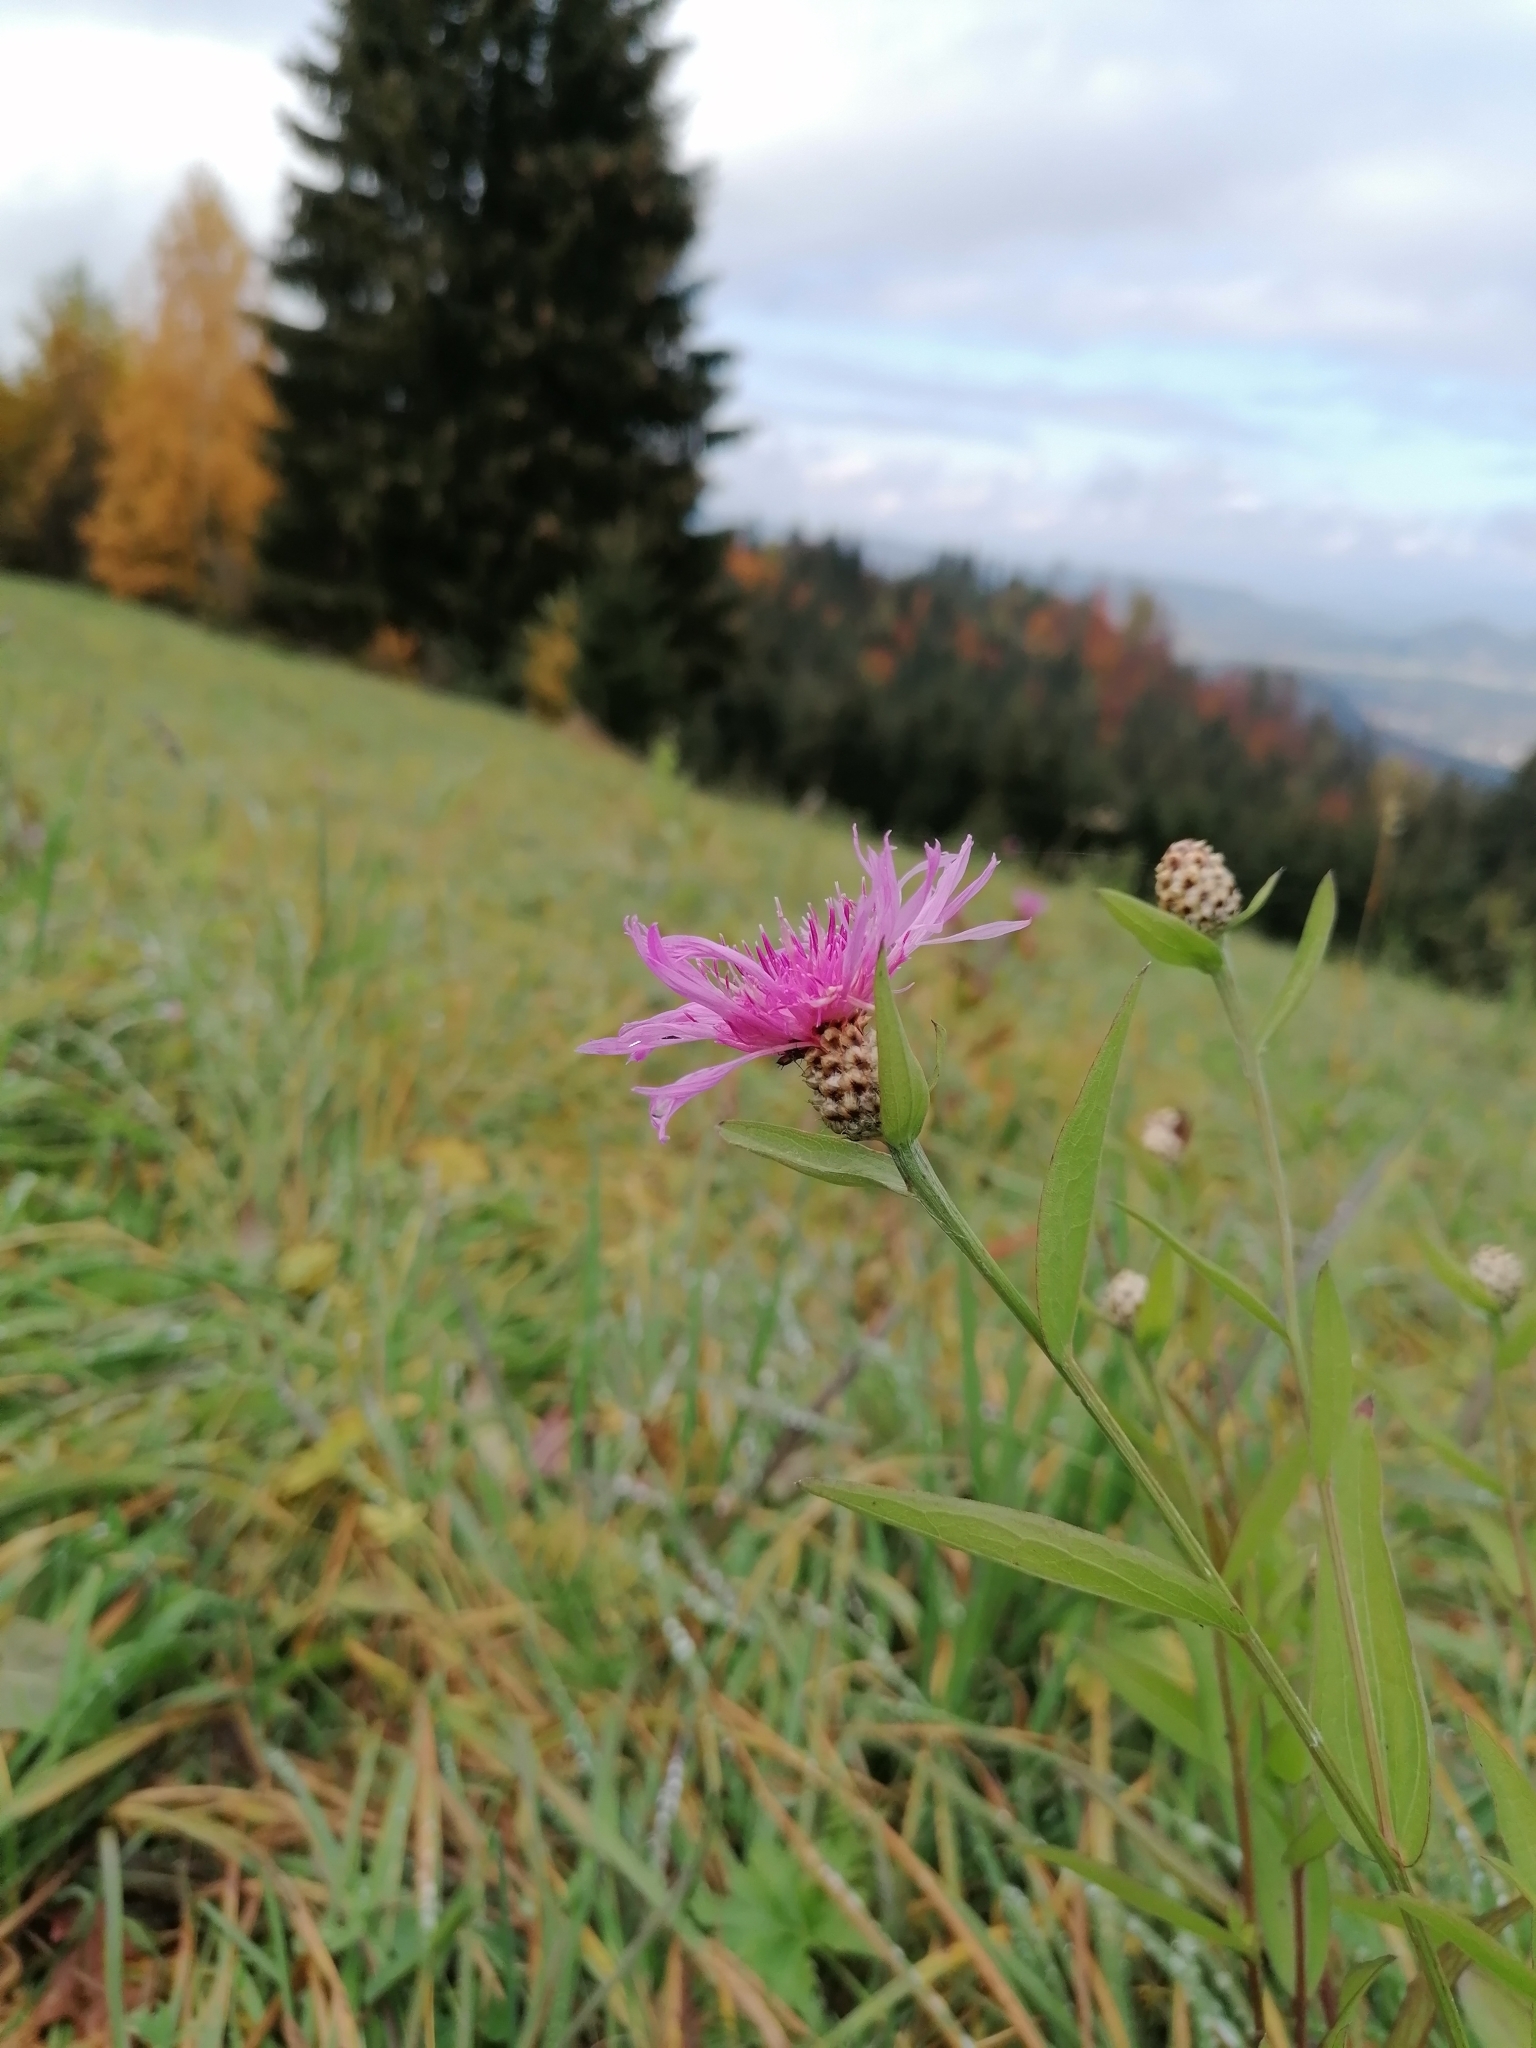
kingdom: Plantae
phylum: Tracheophyta
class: Magnoliopsida
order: Asterales
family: Asteraceae
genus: Centaurea
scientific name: Centaurea jacea
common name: Brown knapweed
